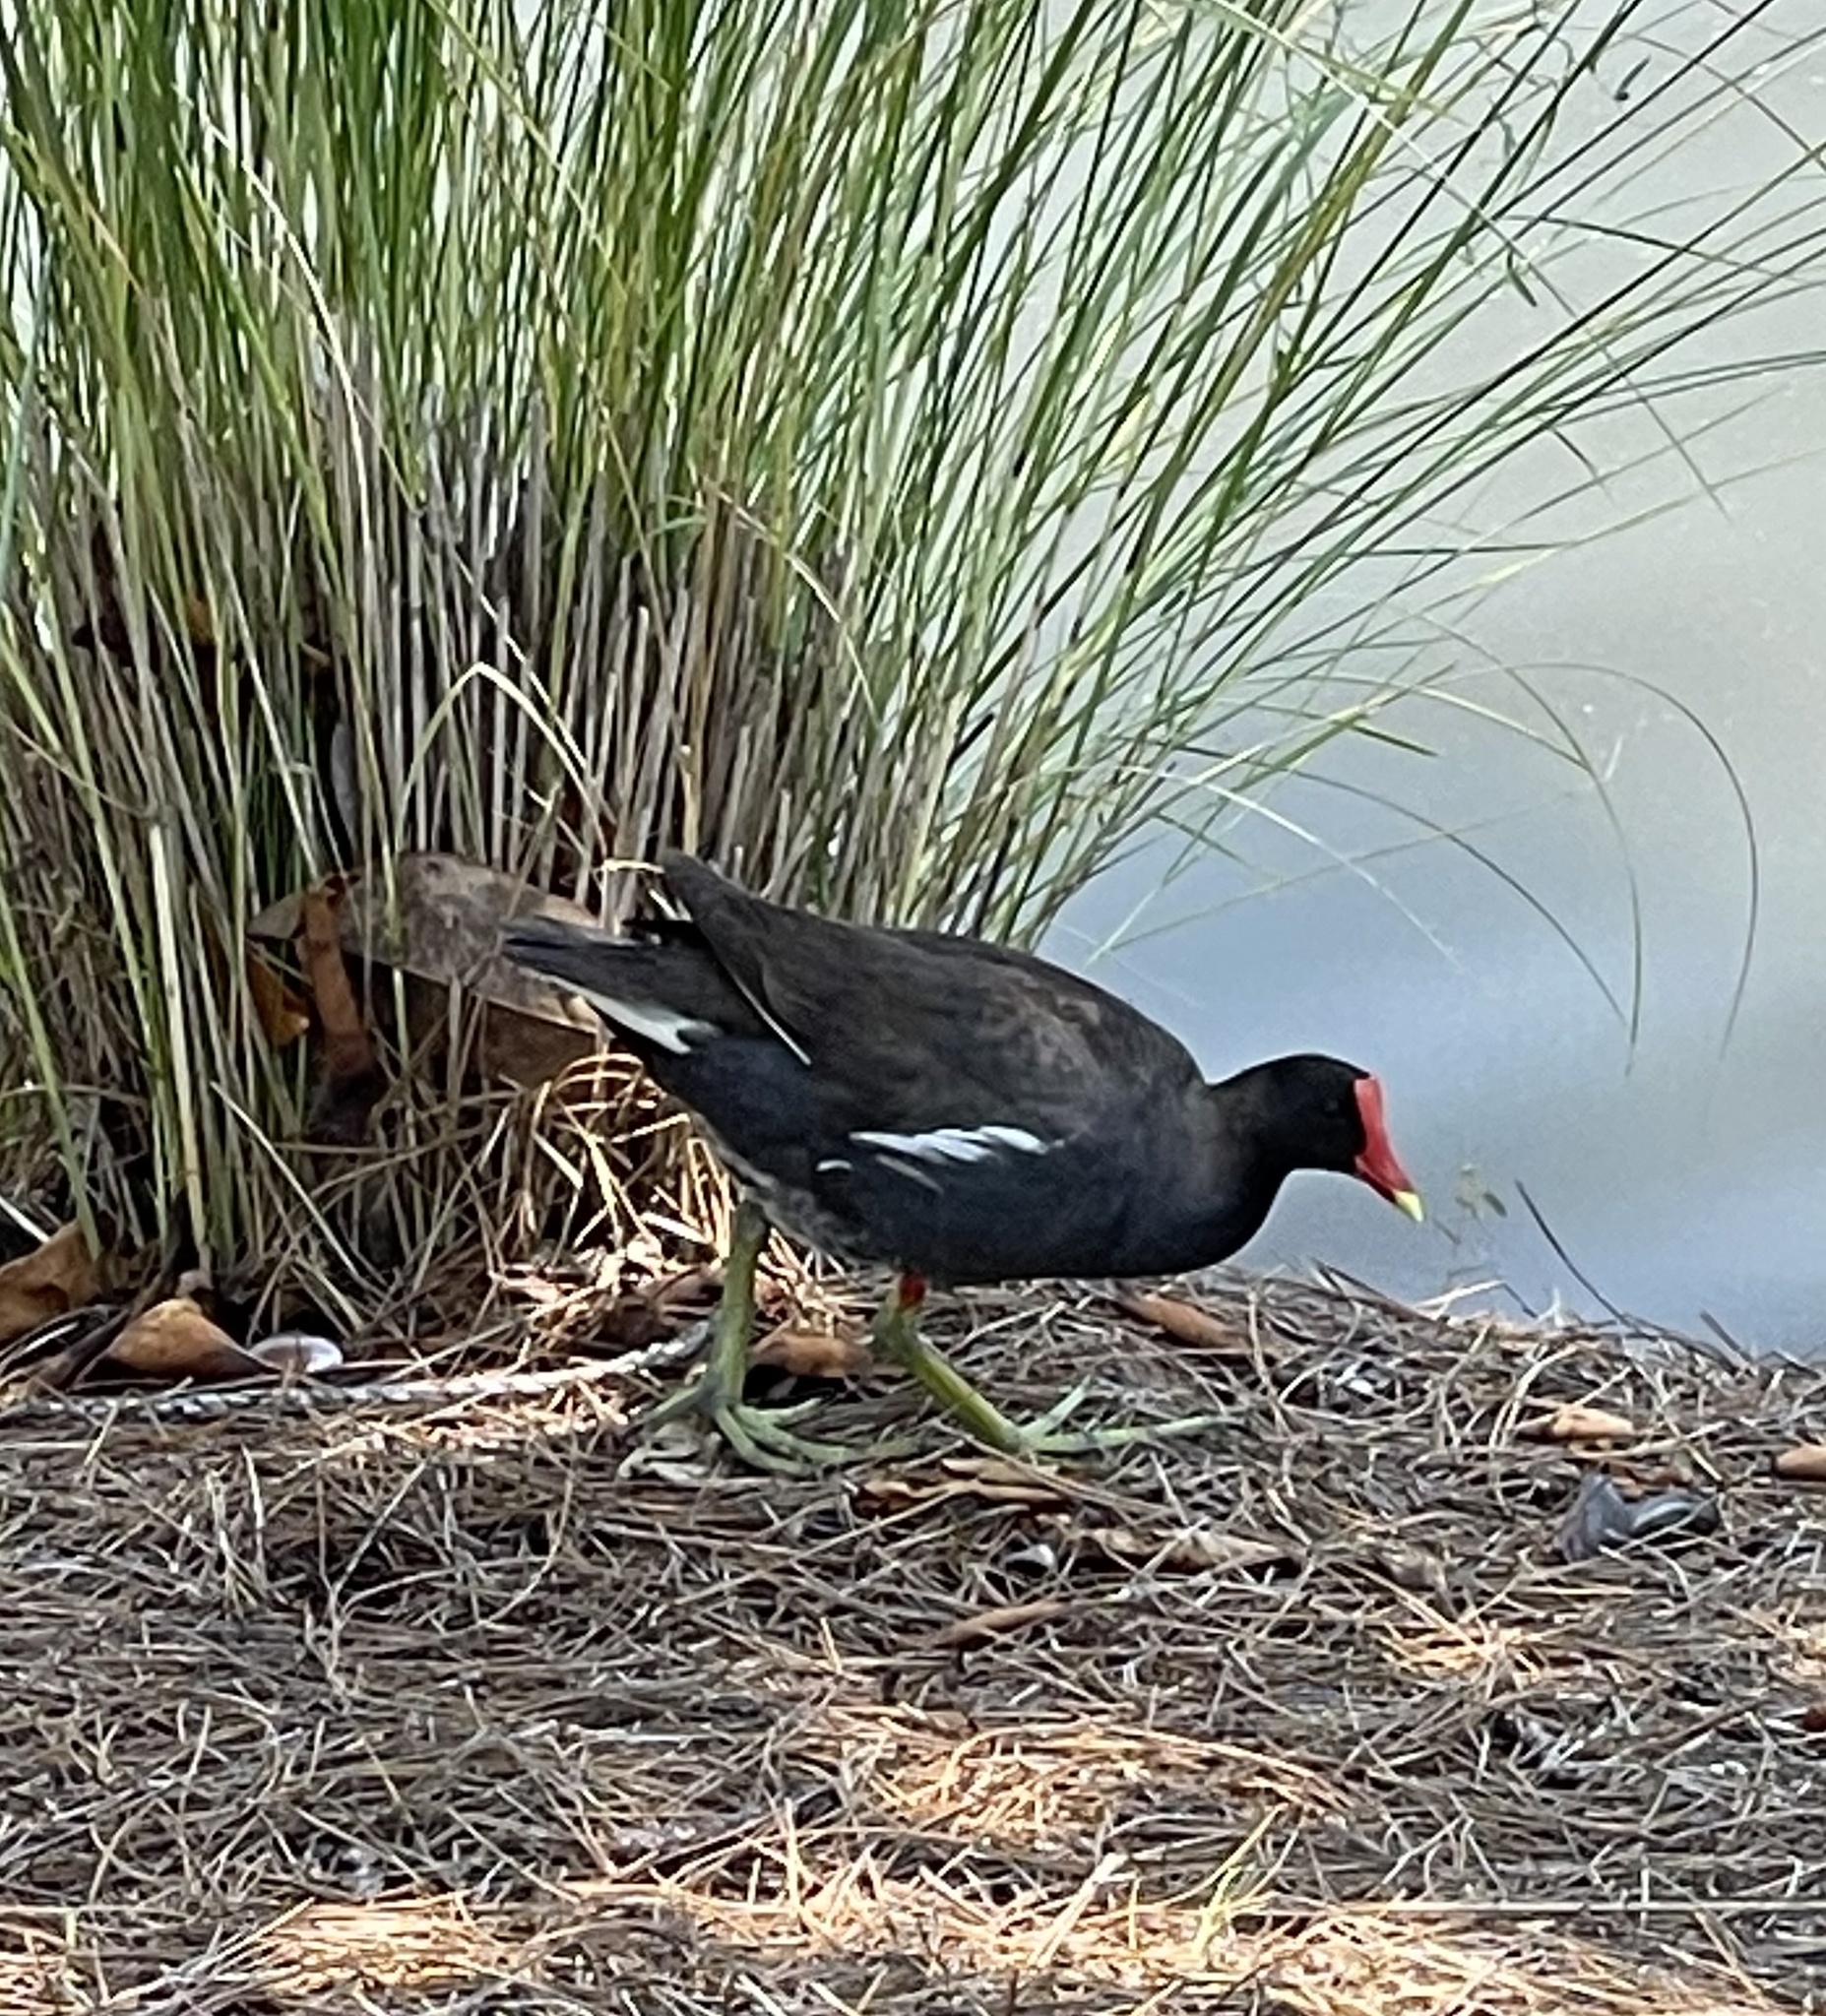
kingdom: Animalia
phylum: Chordata
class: Aves
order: Gruiformes
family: Rallidae
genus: Gallinula
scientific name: Gallinula chloropus
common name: Common moorhen
